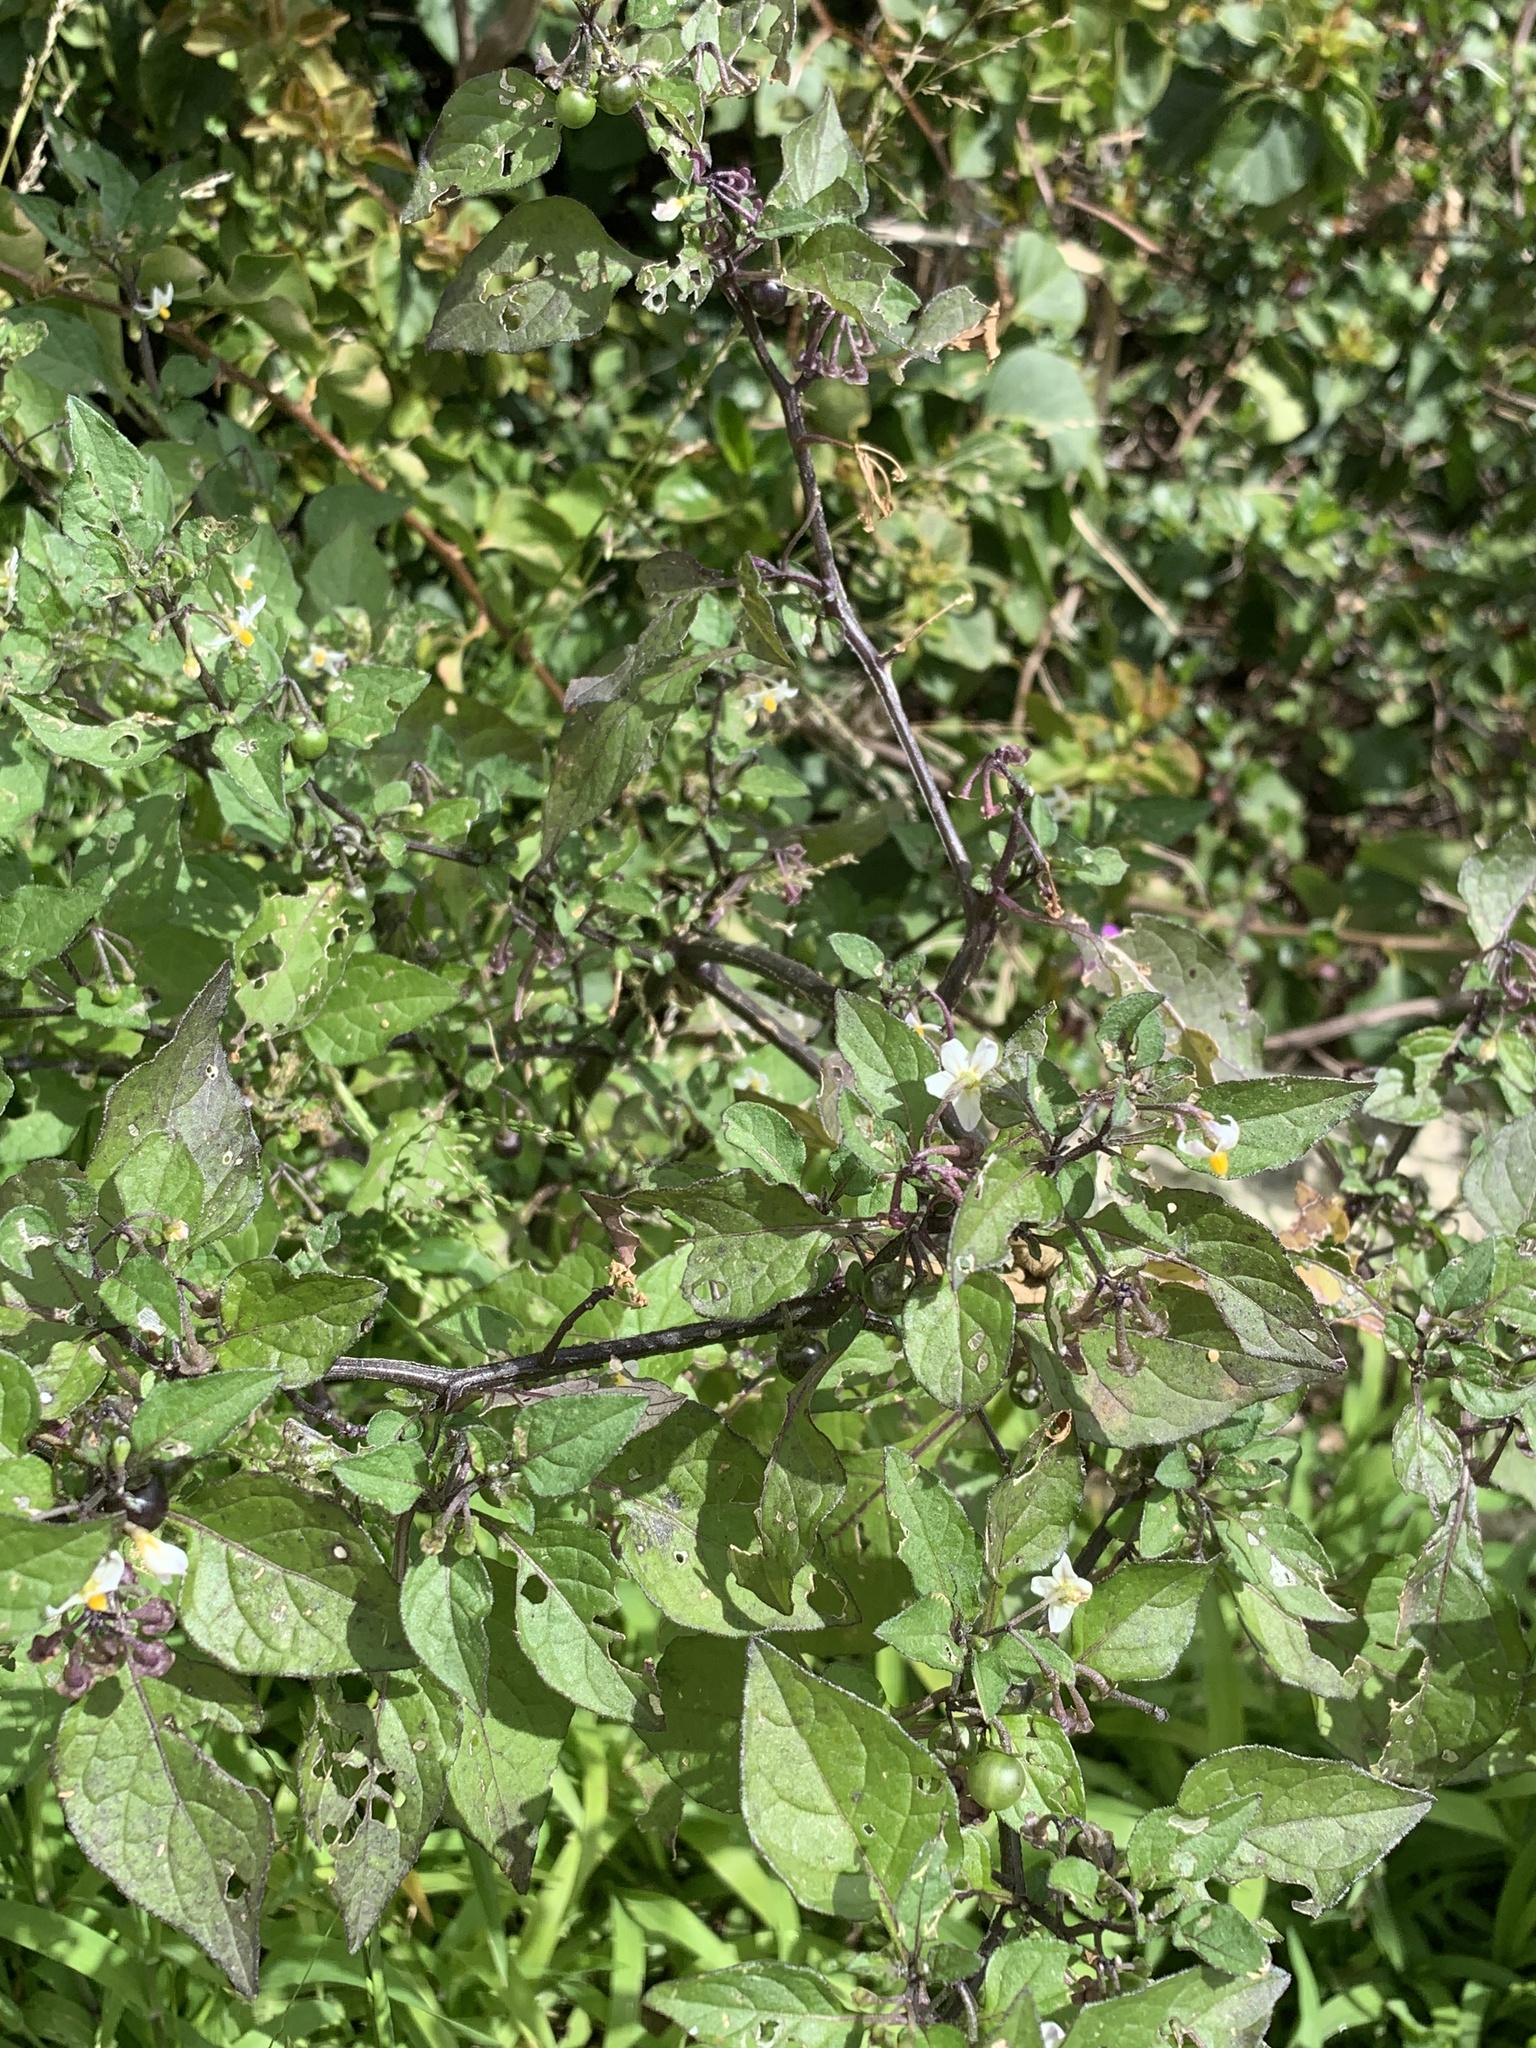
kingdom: Plantae
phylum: Tracheophyta
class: Magnoliopsida
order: Solanales
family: Solanaceae
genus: Solanum
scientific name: Solanum nigrum
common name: Black nightshade
